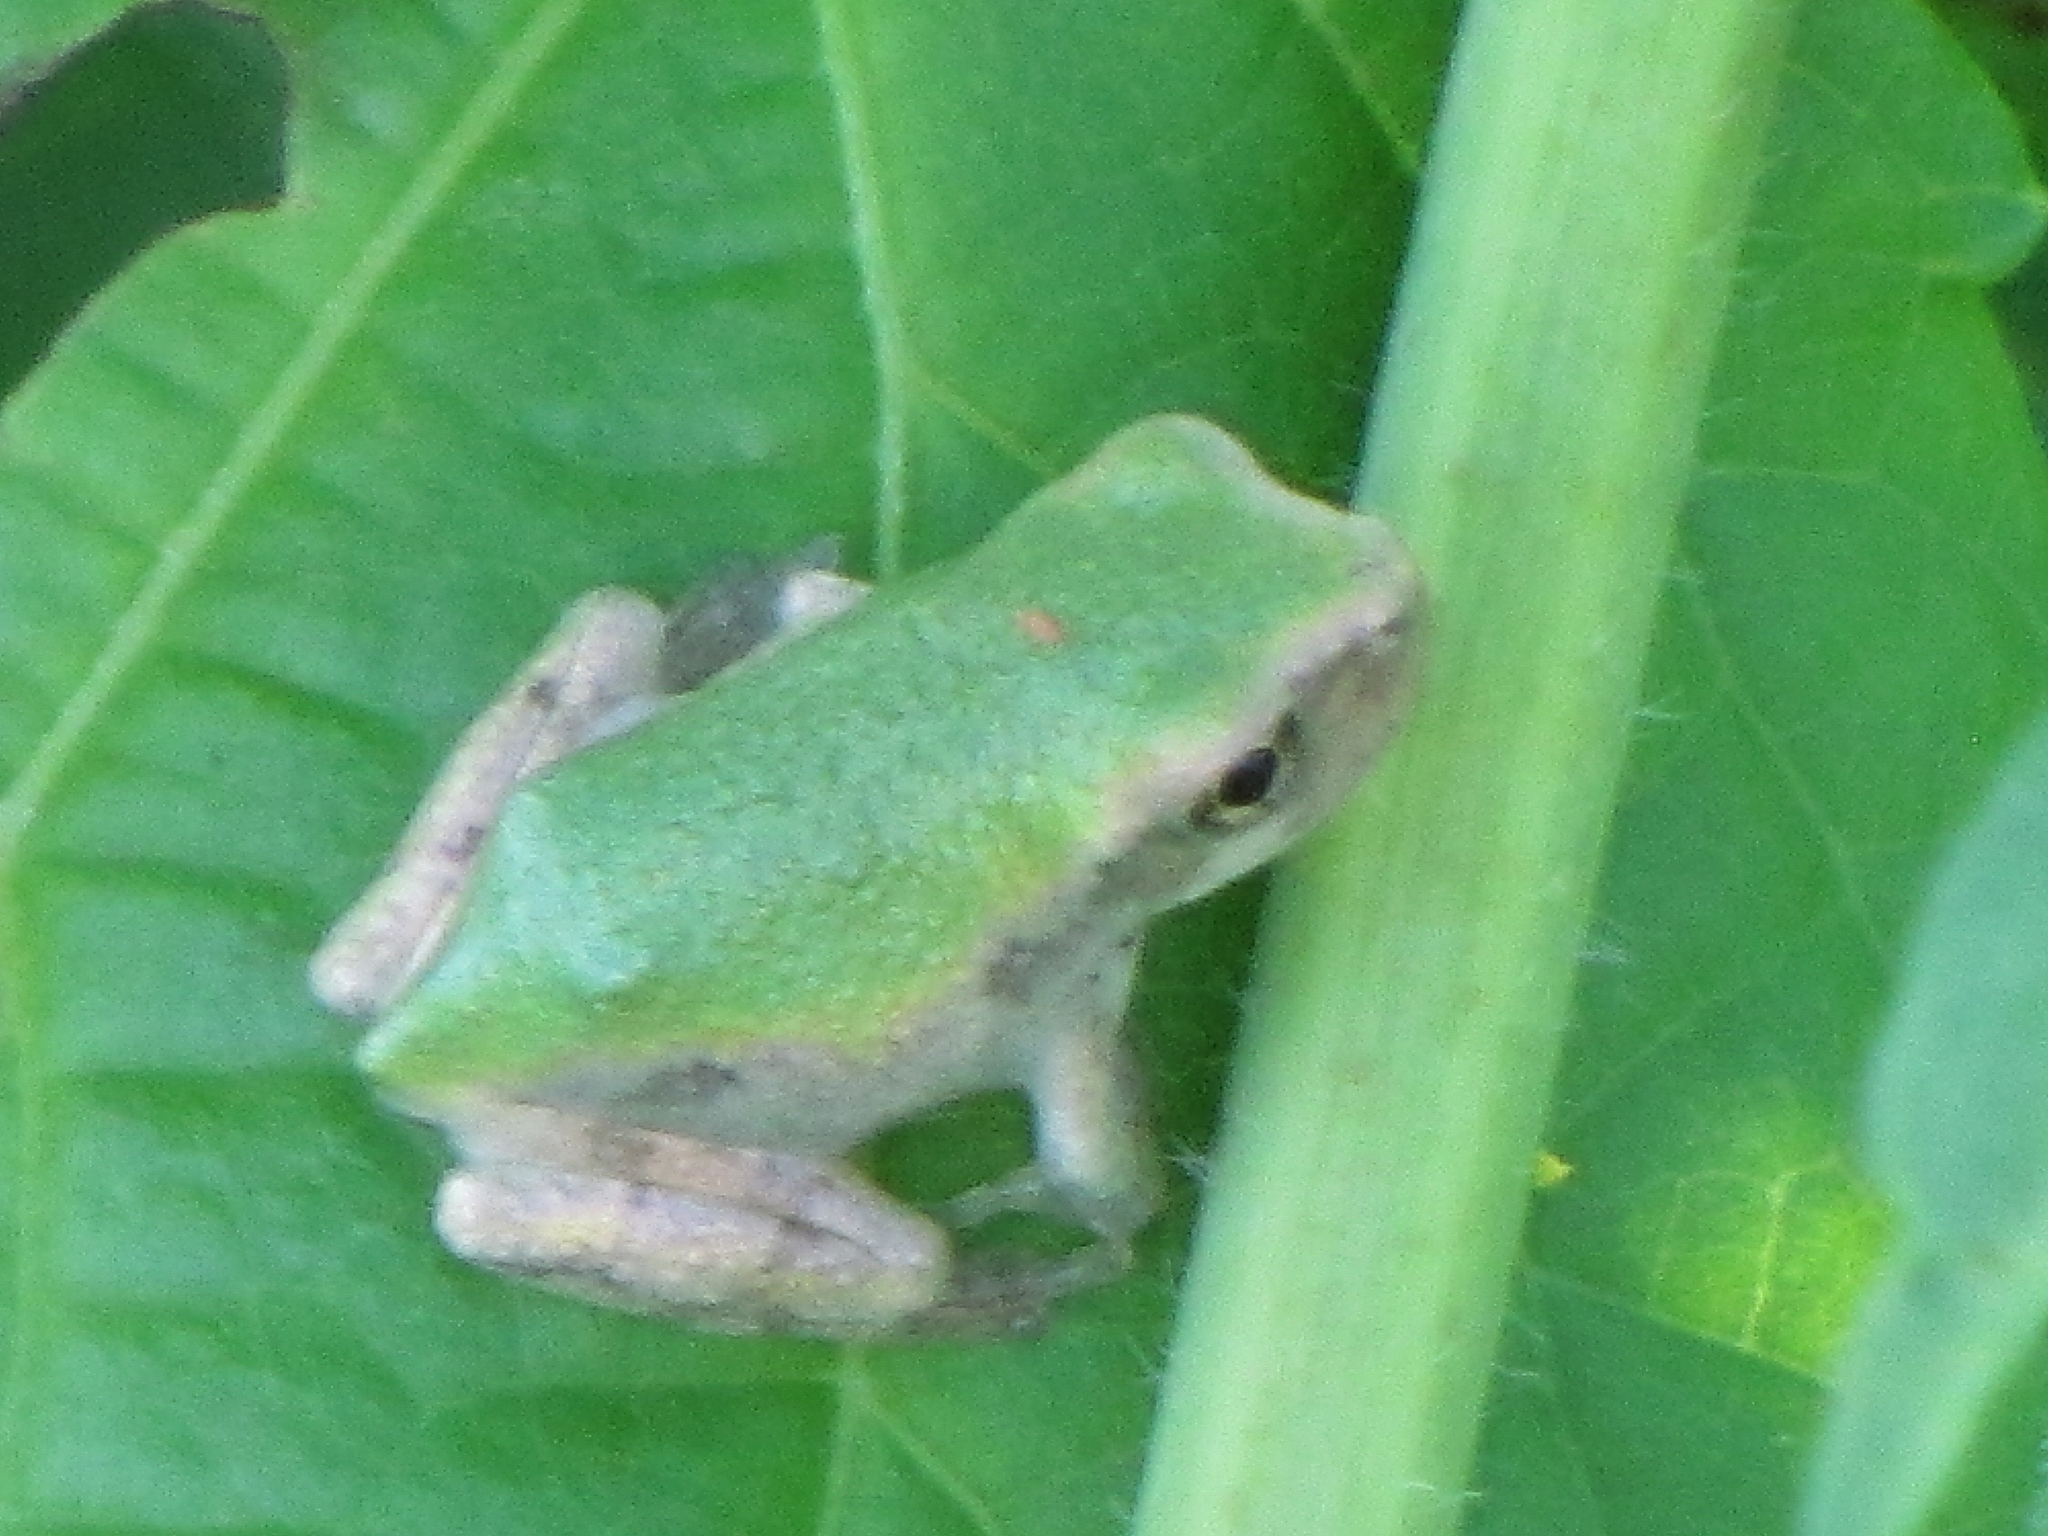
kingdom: Animalia
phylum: Chordata
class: Amphibia
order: Anura
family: Hylidae
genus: Dryophytes
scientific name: Dryophytes chrysoscelis
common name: Cope's gray treefrog
